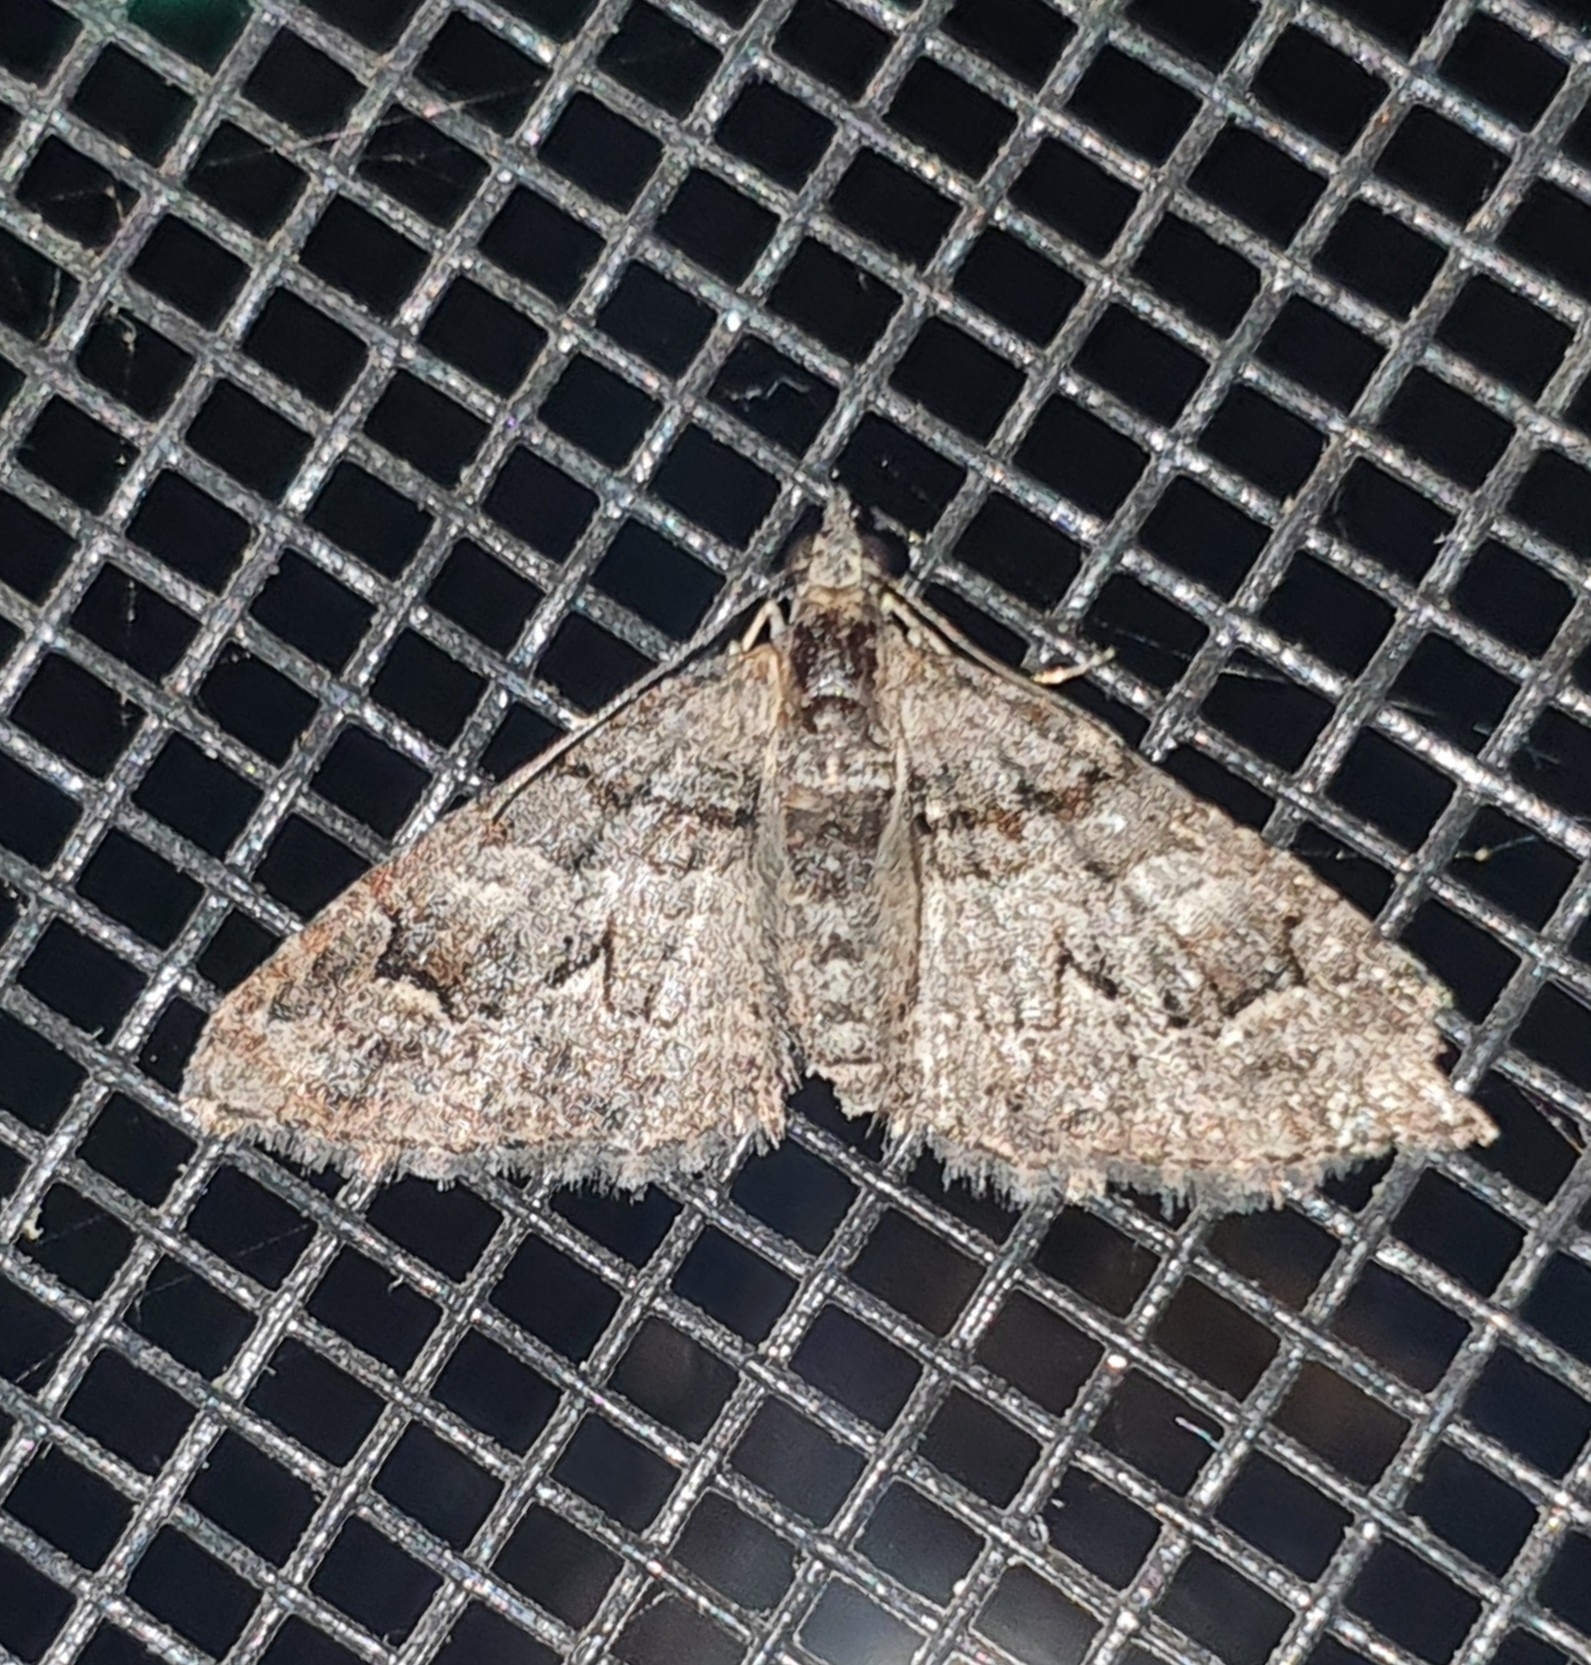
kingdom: Animalia
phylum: Arthropoda
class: Insecta
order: Lepidoptera
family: Geometridae
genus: Phrissogonus
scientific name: Phrissogonus laticostata
